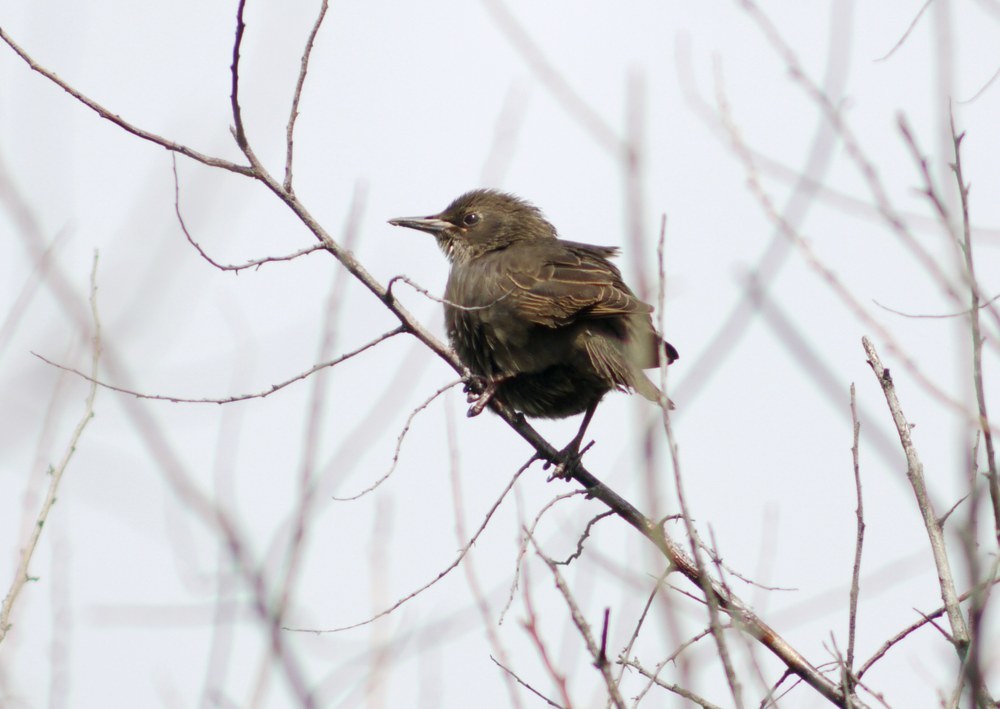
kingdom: Animalia
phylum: Chordata
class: Aves
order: Passeriformes
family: Sturnidae
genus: Sturnus
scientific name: Sturnus vulgaris
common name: Common starling
